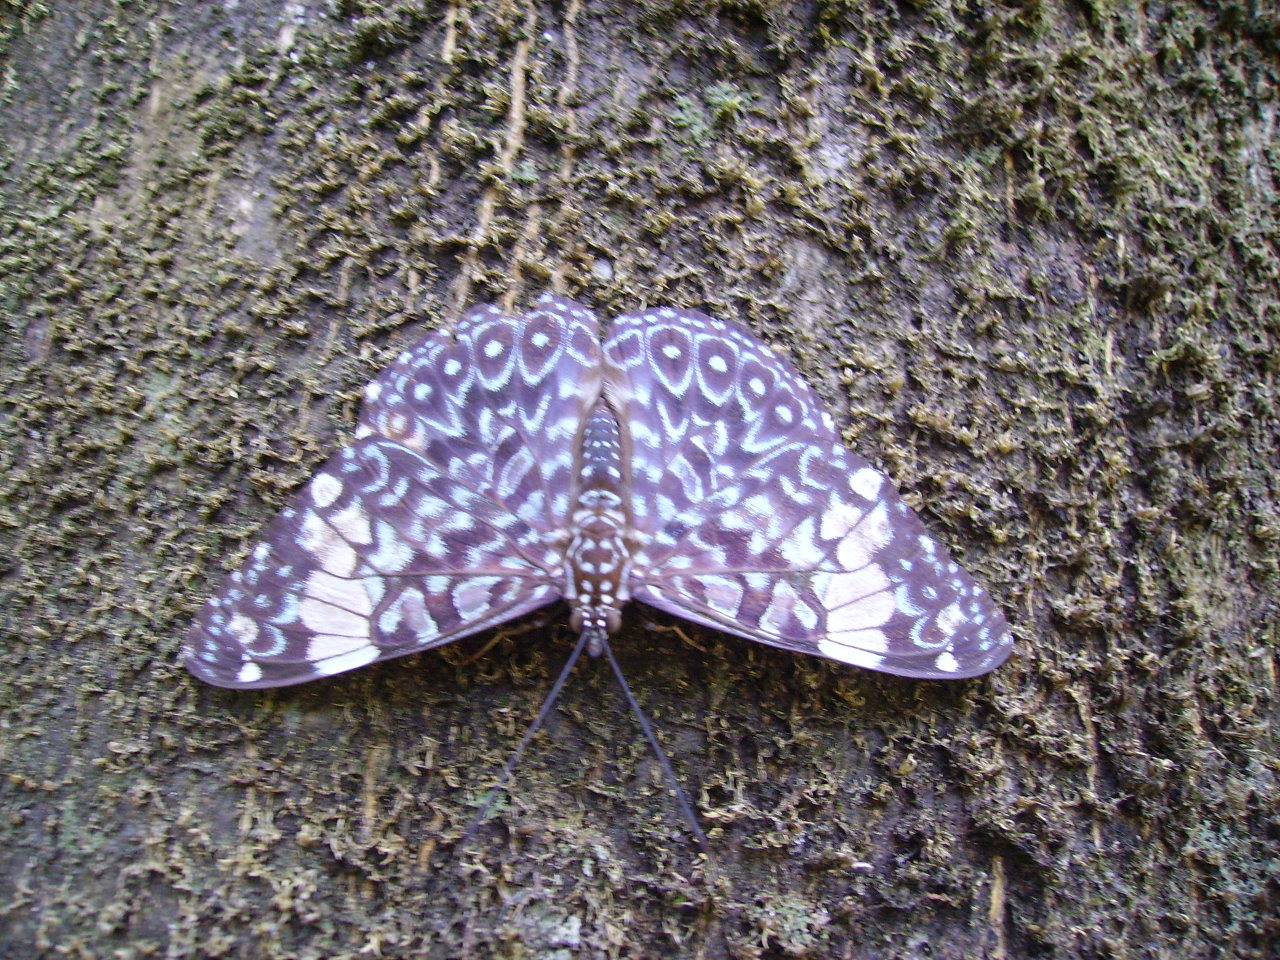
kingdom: Animalia
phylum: Arthropoda
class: Insecta
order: Lepidoptera
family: Nymphalidae
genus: Hamadryas
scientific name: Hamadryas amphinome
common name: Red cracker
